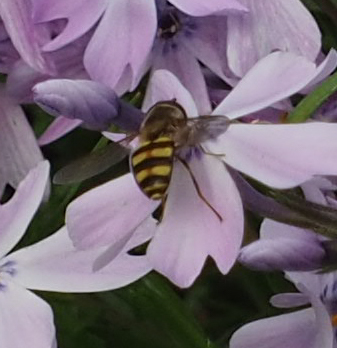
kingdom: Animalia
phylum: Arthropoda
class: Insecta
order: Diptera
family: Syrphidae
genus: Eupeodes
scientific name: Eupeodes
